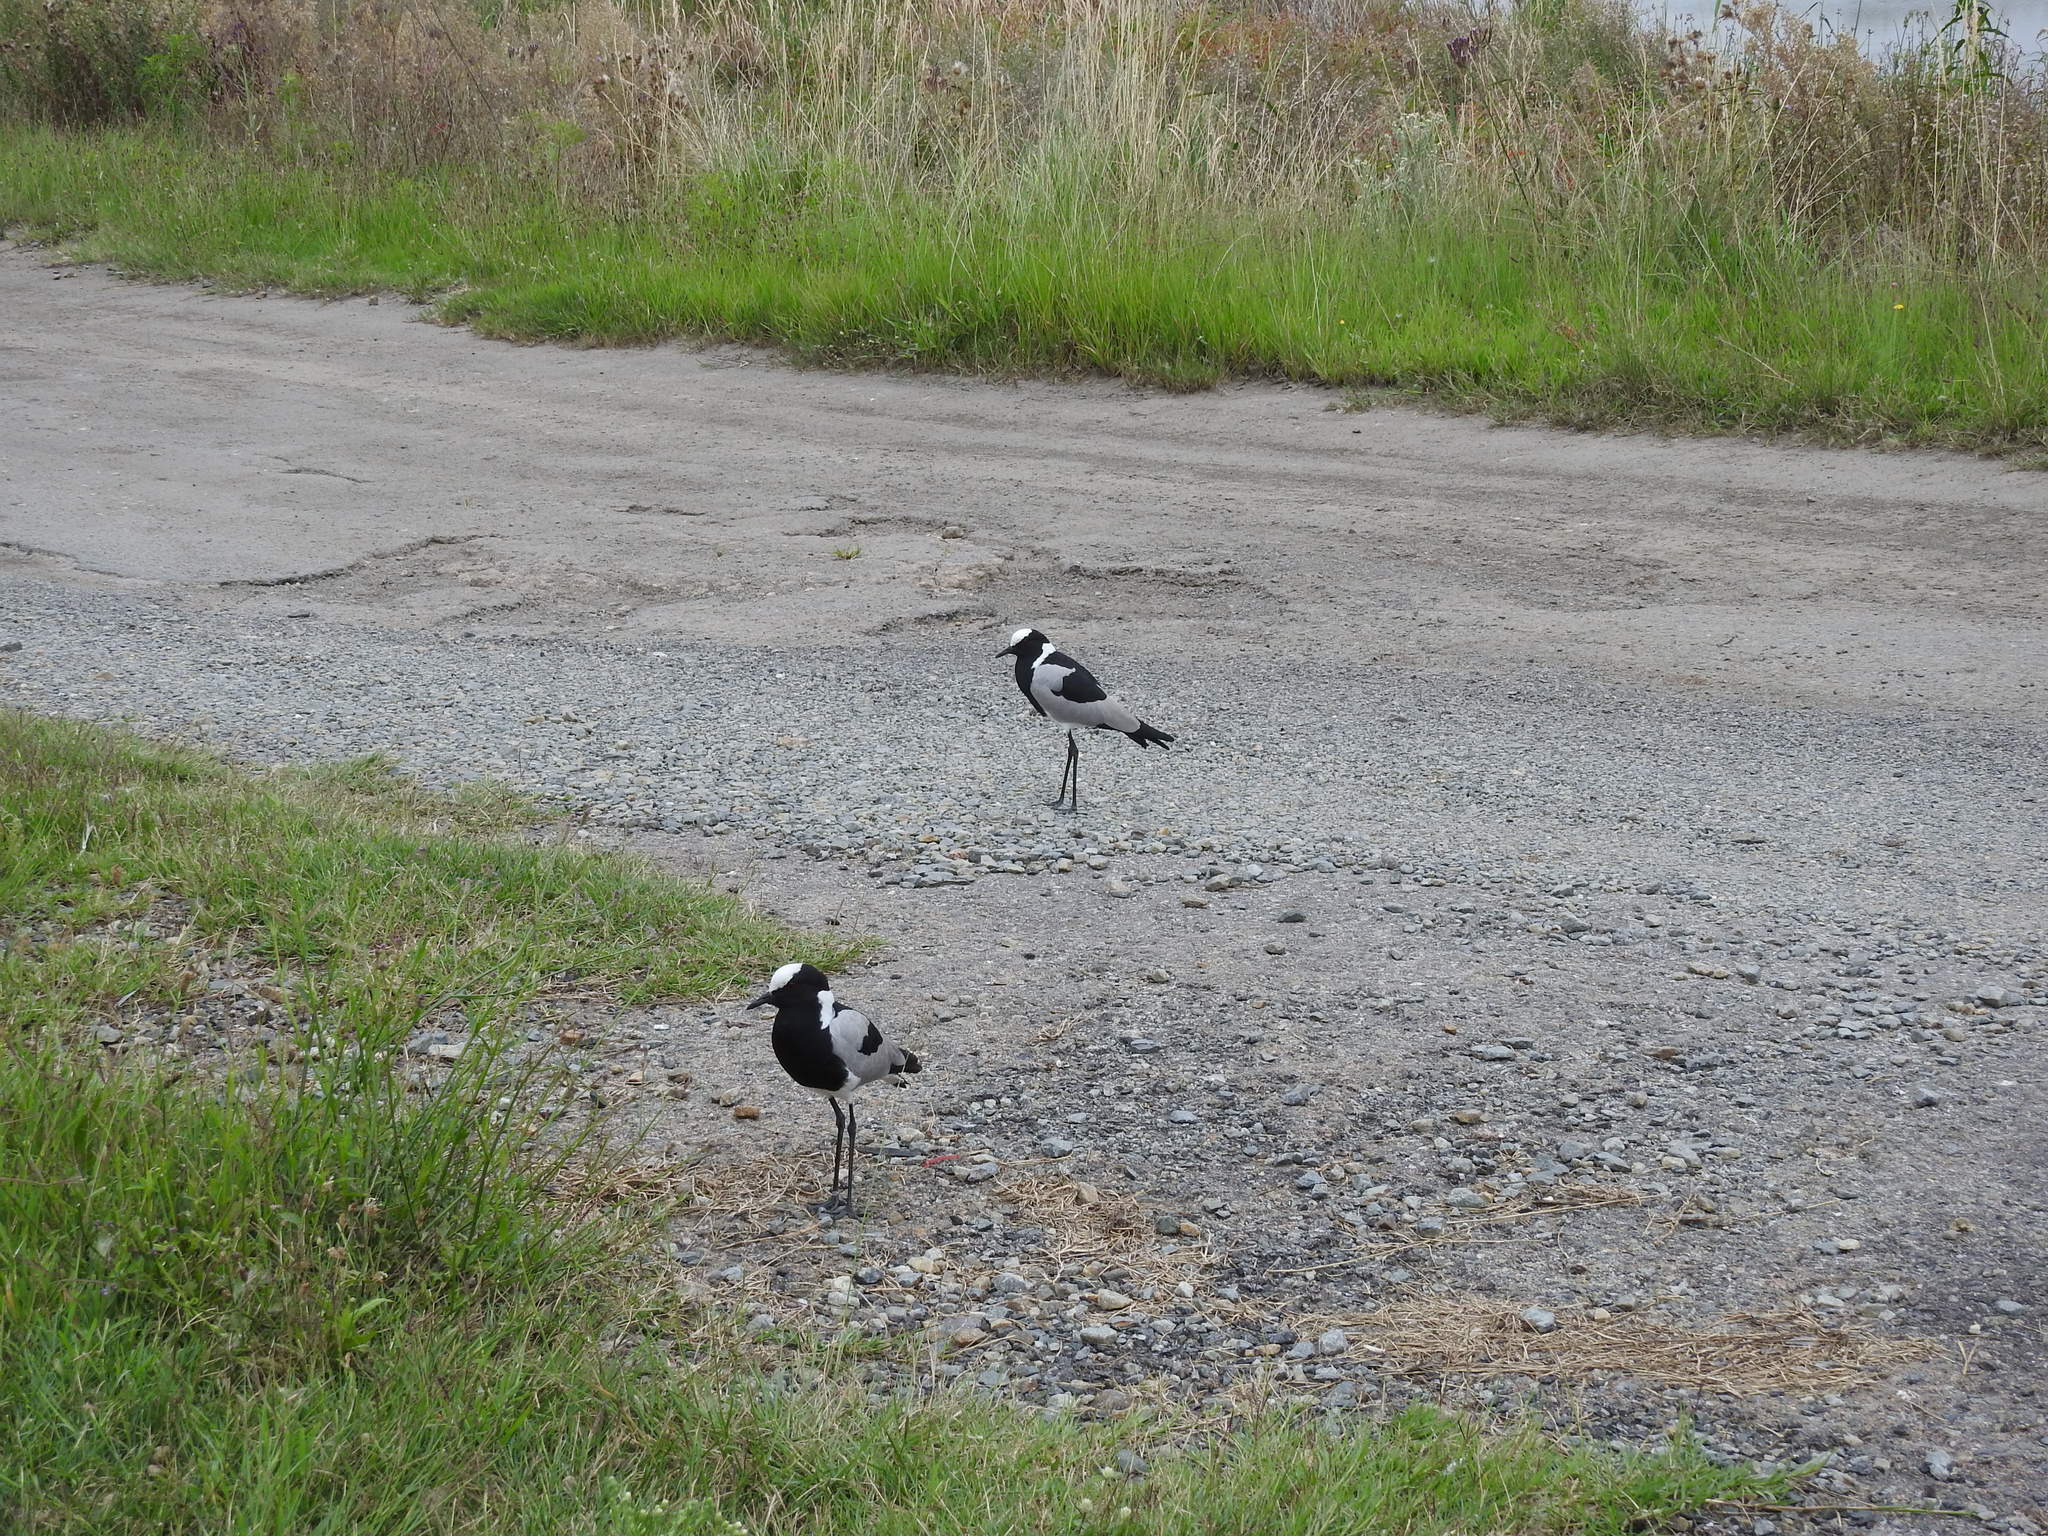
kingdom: Animalia
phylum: Chordata
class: Aves
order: Charadriiformes
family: Charadriidae
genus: Vanellus
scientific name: Vanellus armatus
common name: Blacksmith lapwing
